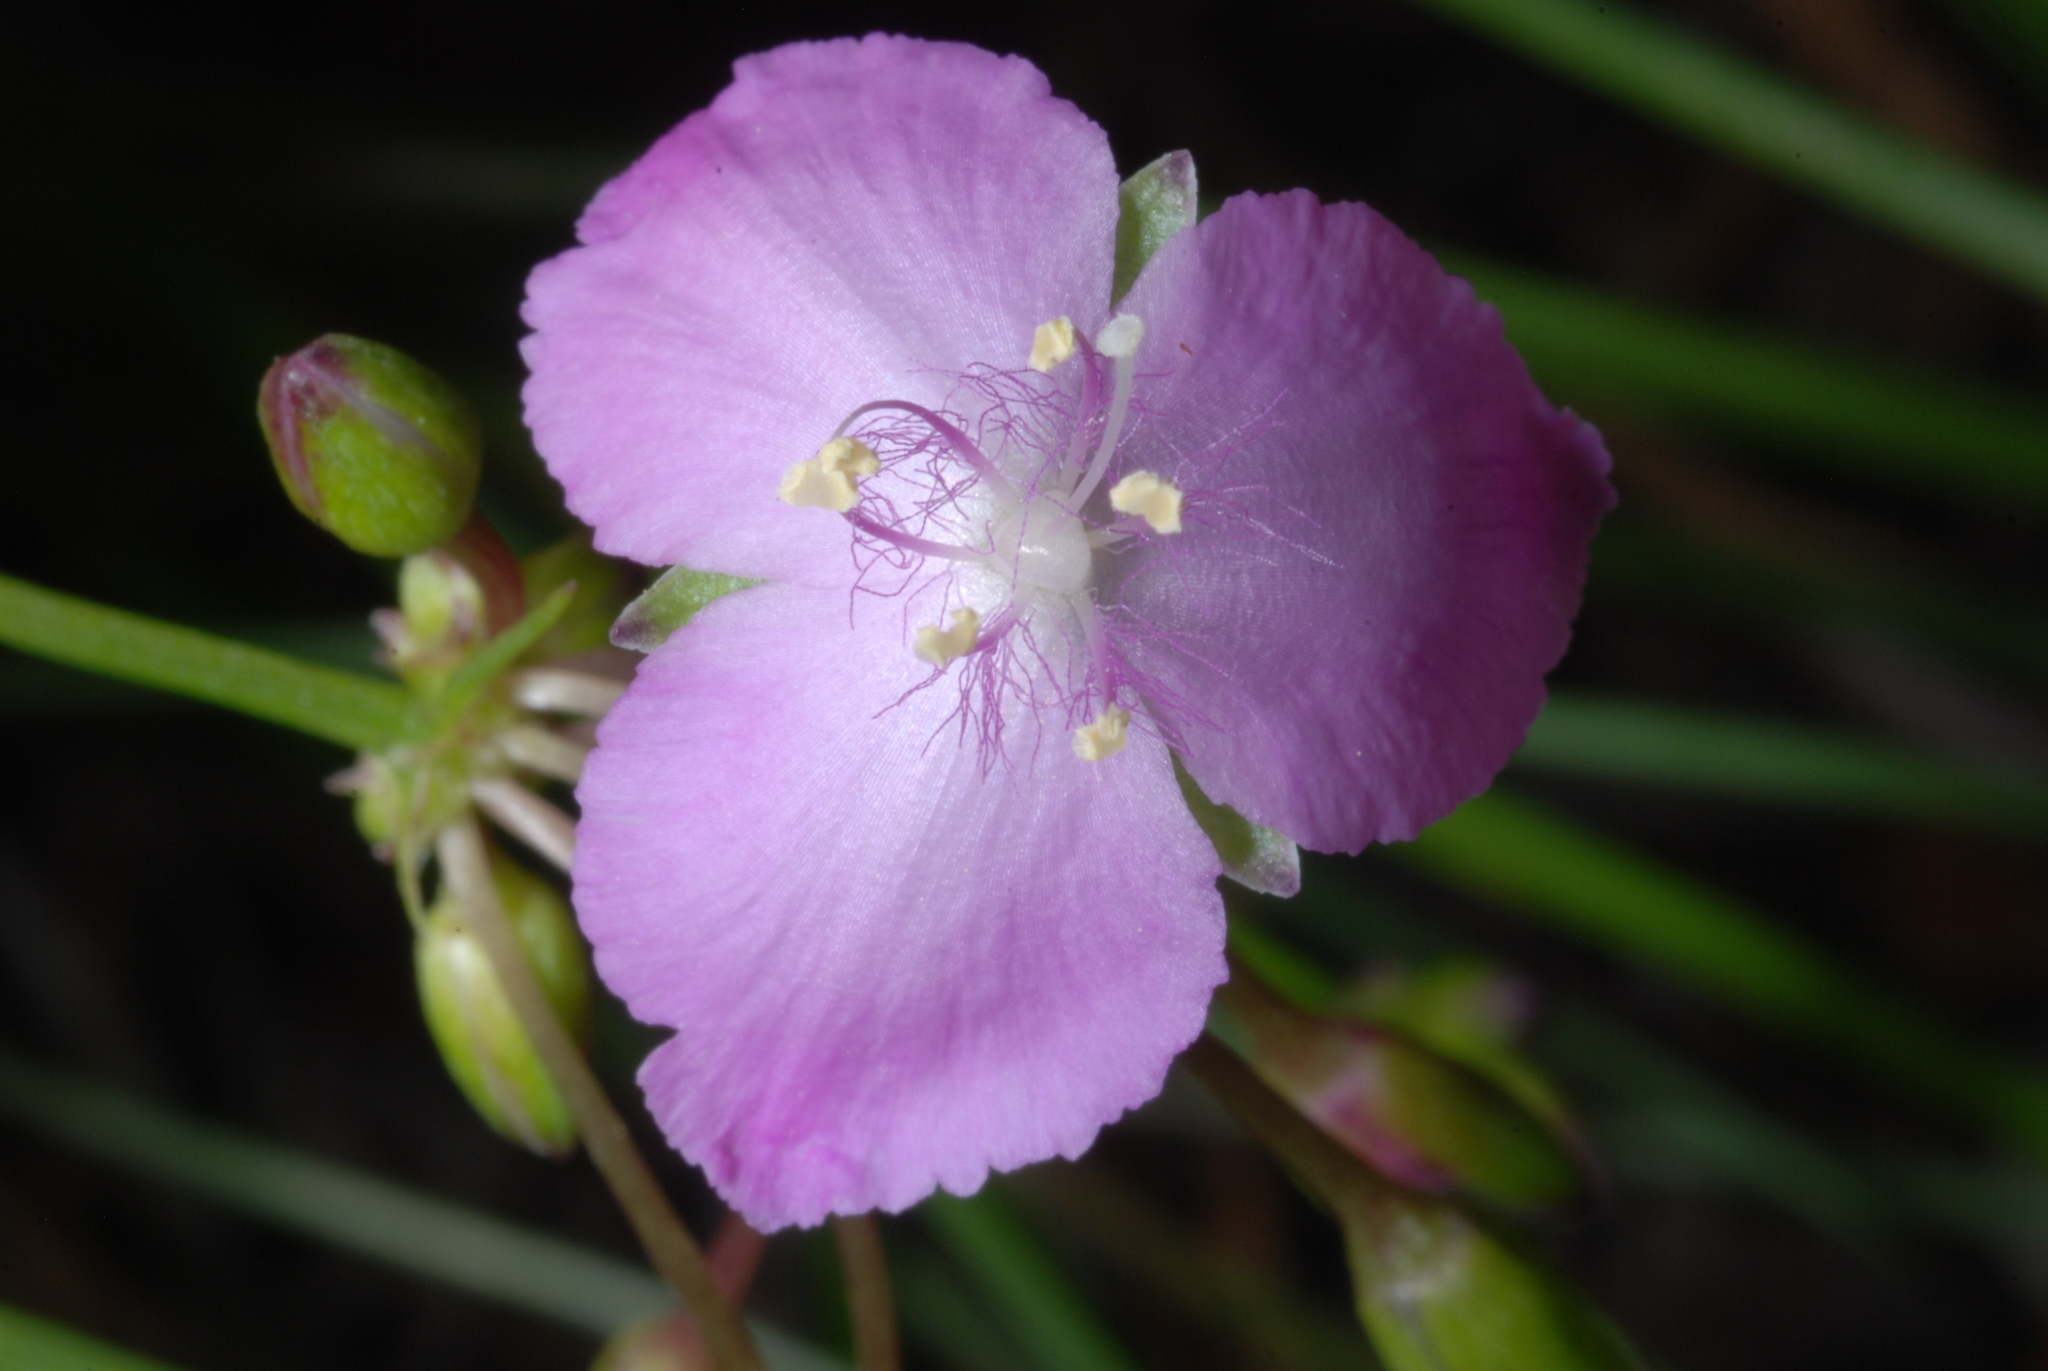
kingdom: Plantae
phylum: Tracheophyta
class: Liliopsida
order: Commelinales
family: Commelinaceae
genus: Callisia
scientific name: Callisia rosea
